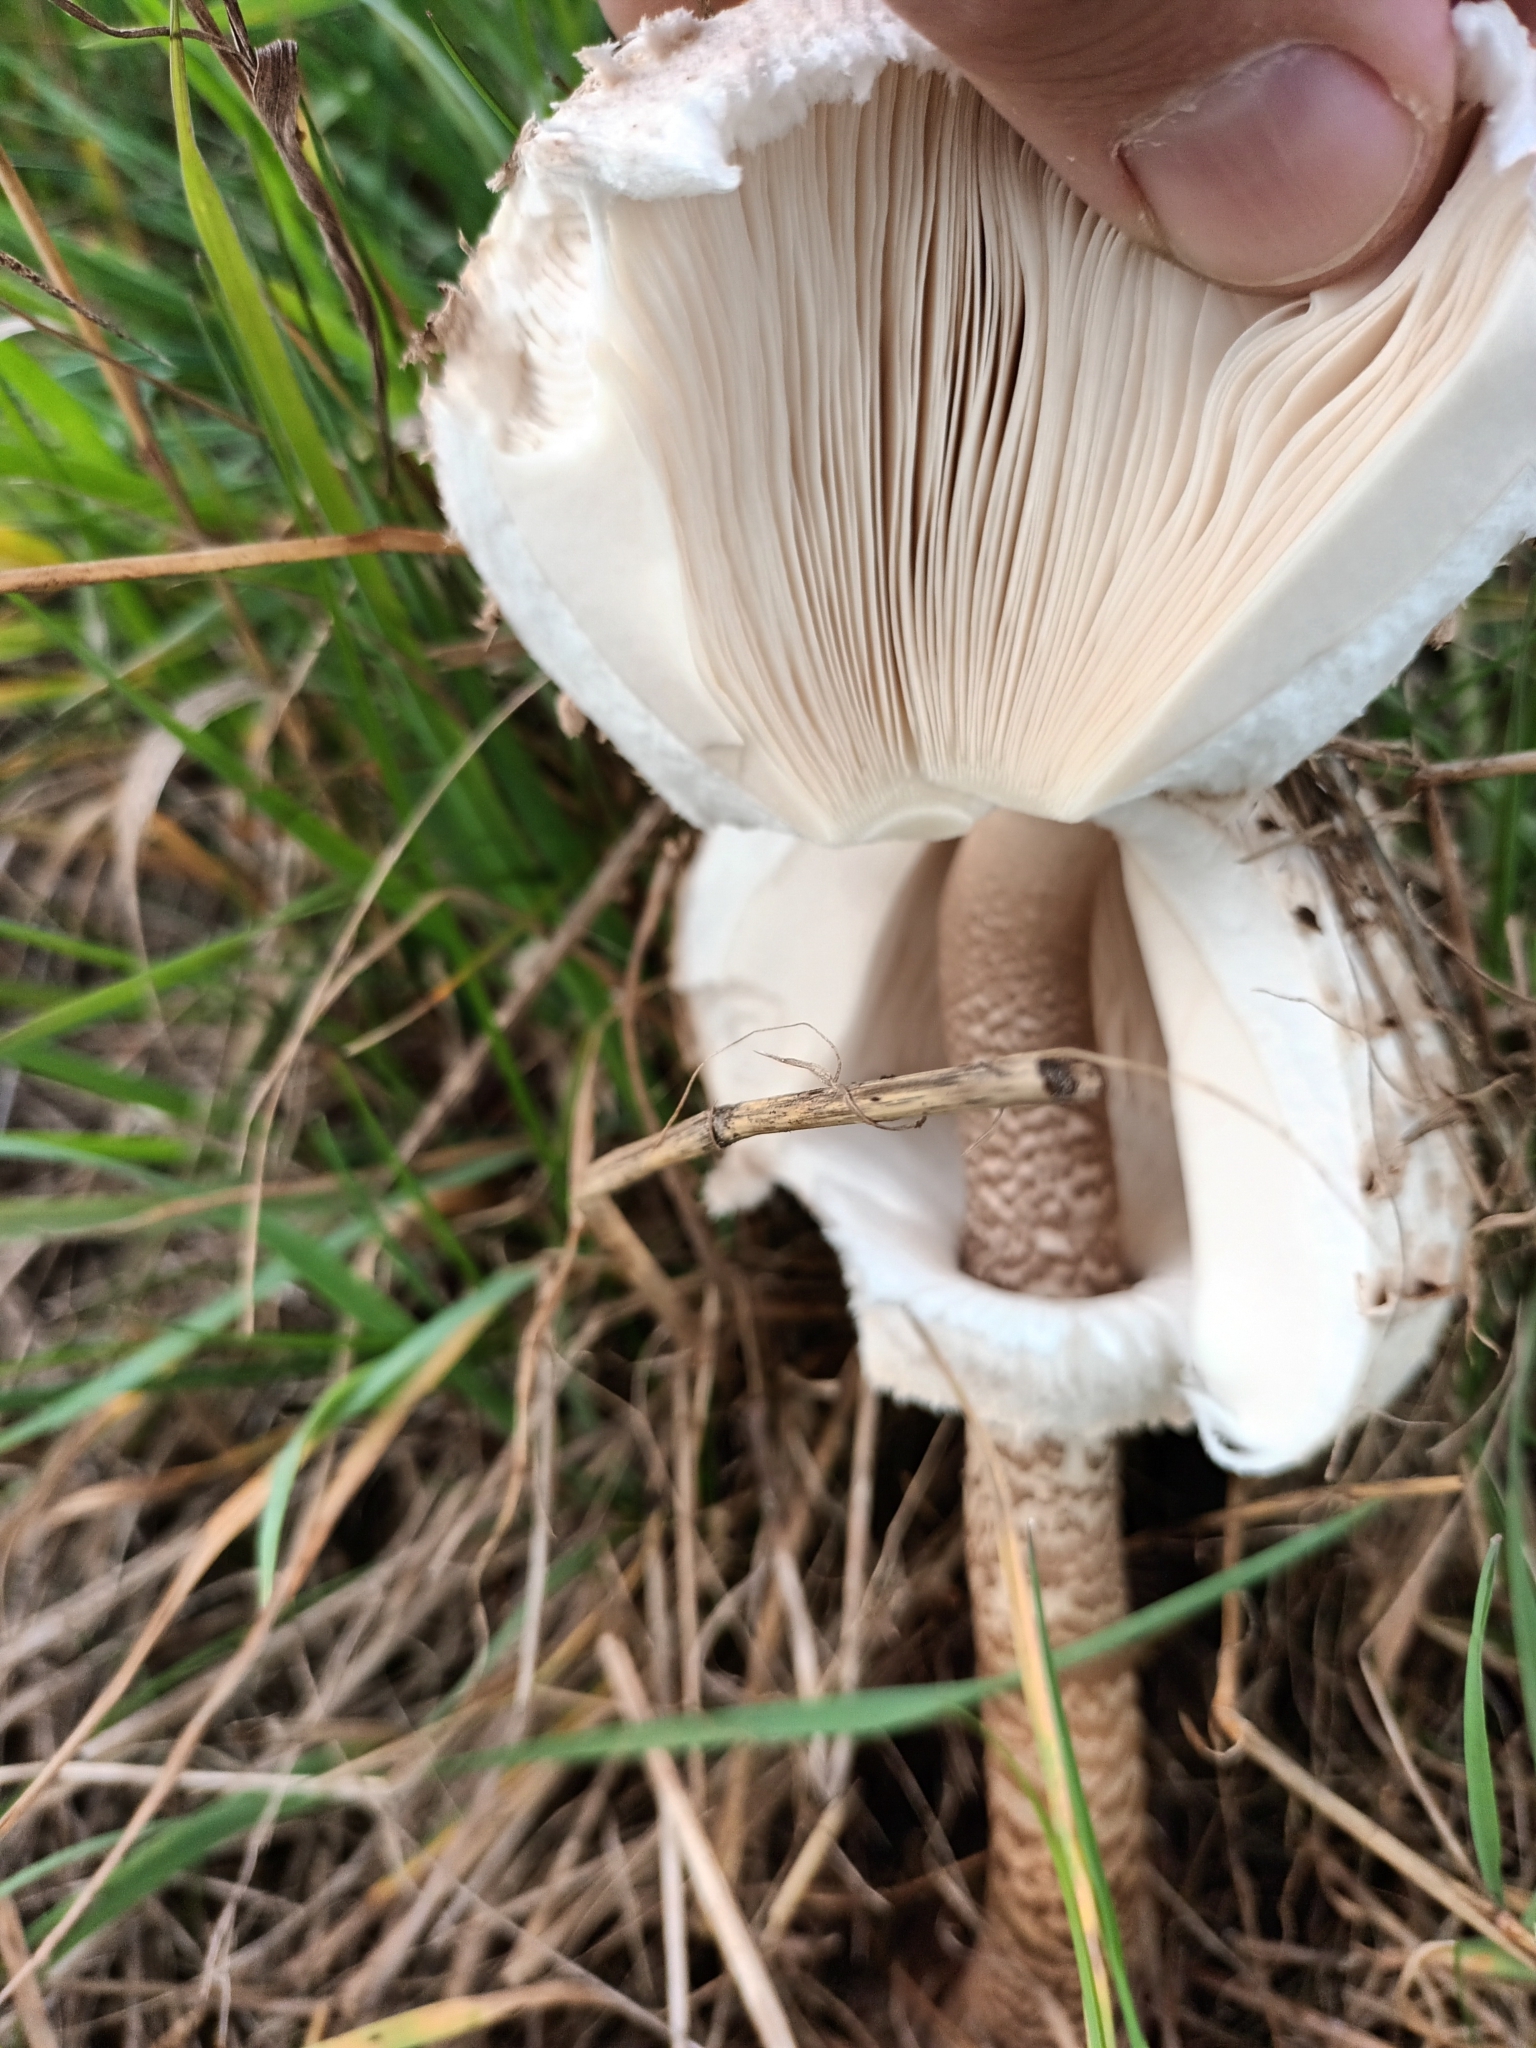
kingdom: Fungi
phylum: Basidiomycota
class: Agaricomycetes
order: Agaricales
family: Agaricaceae
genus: Macrolepiota
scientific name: Macrolepiota procera
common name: Parasol
